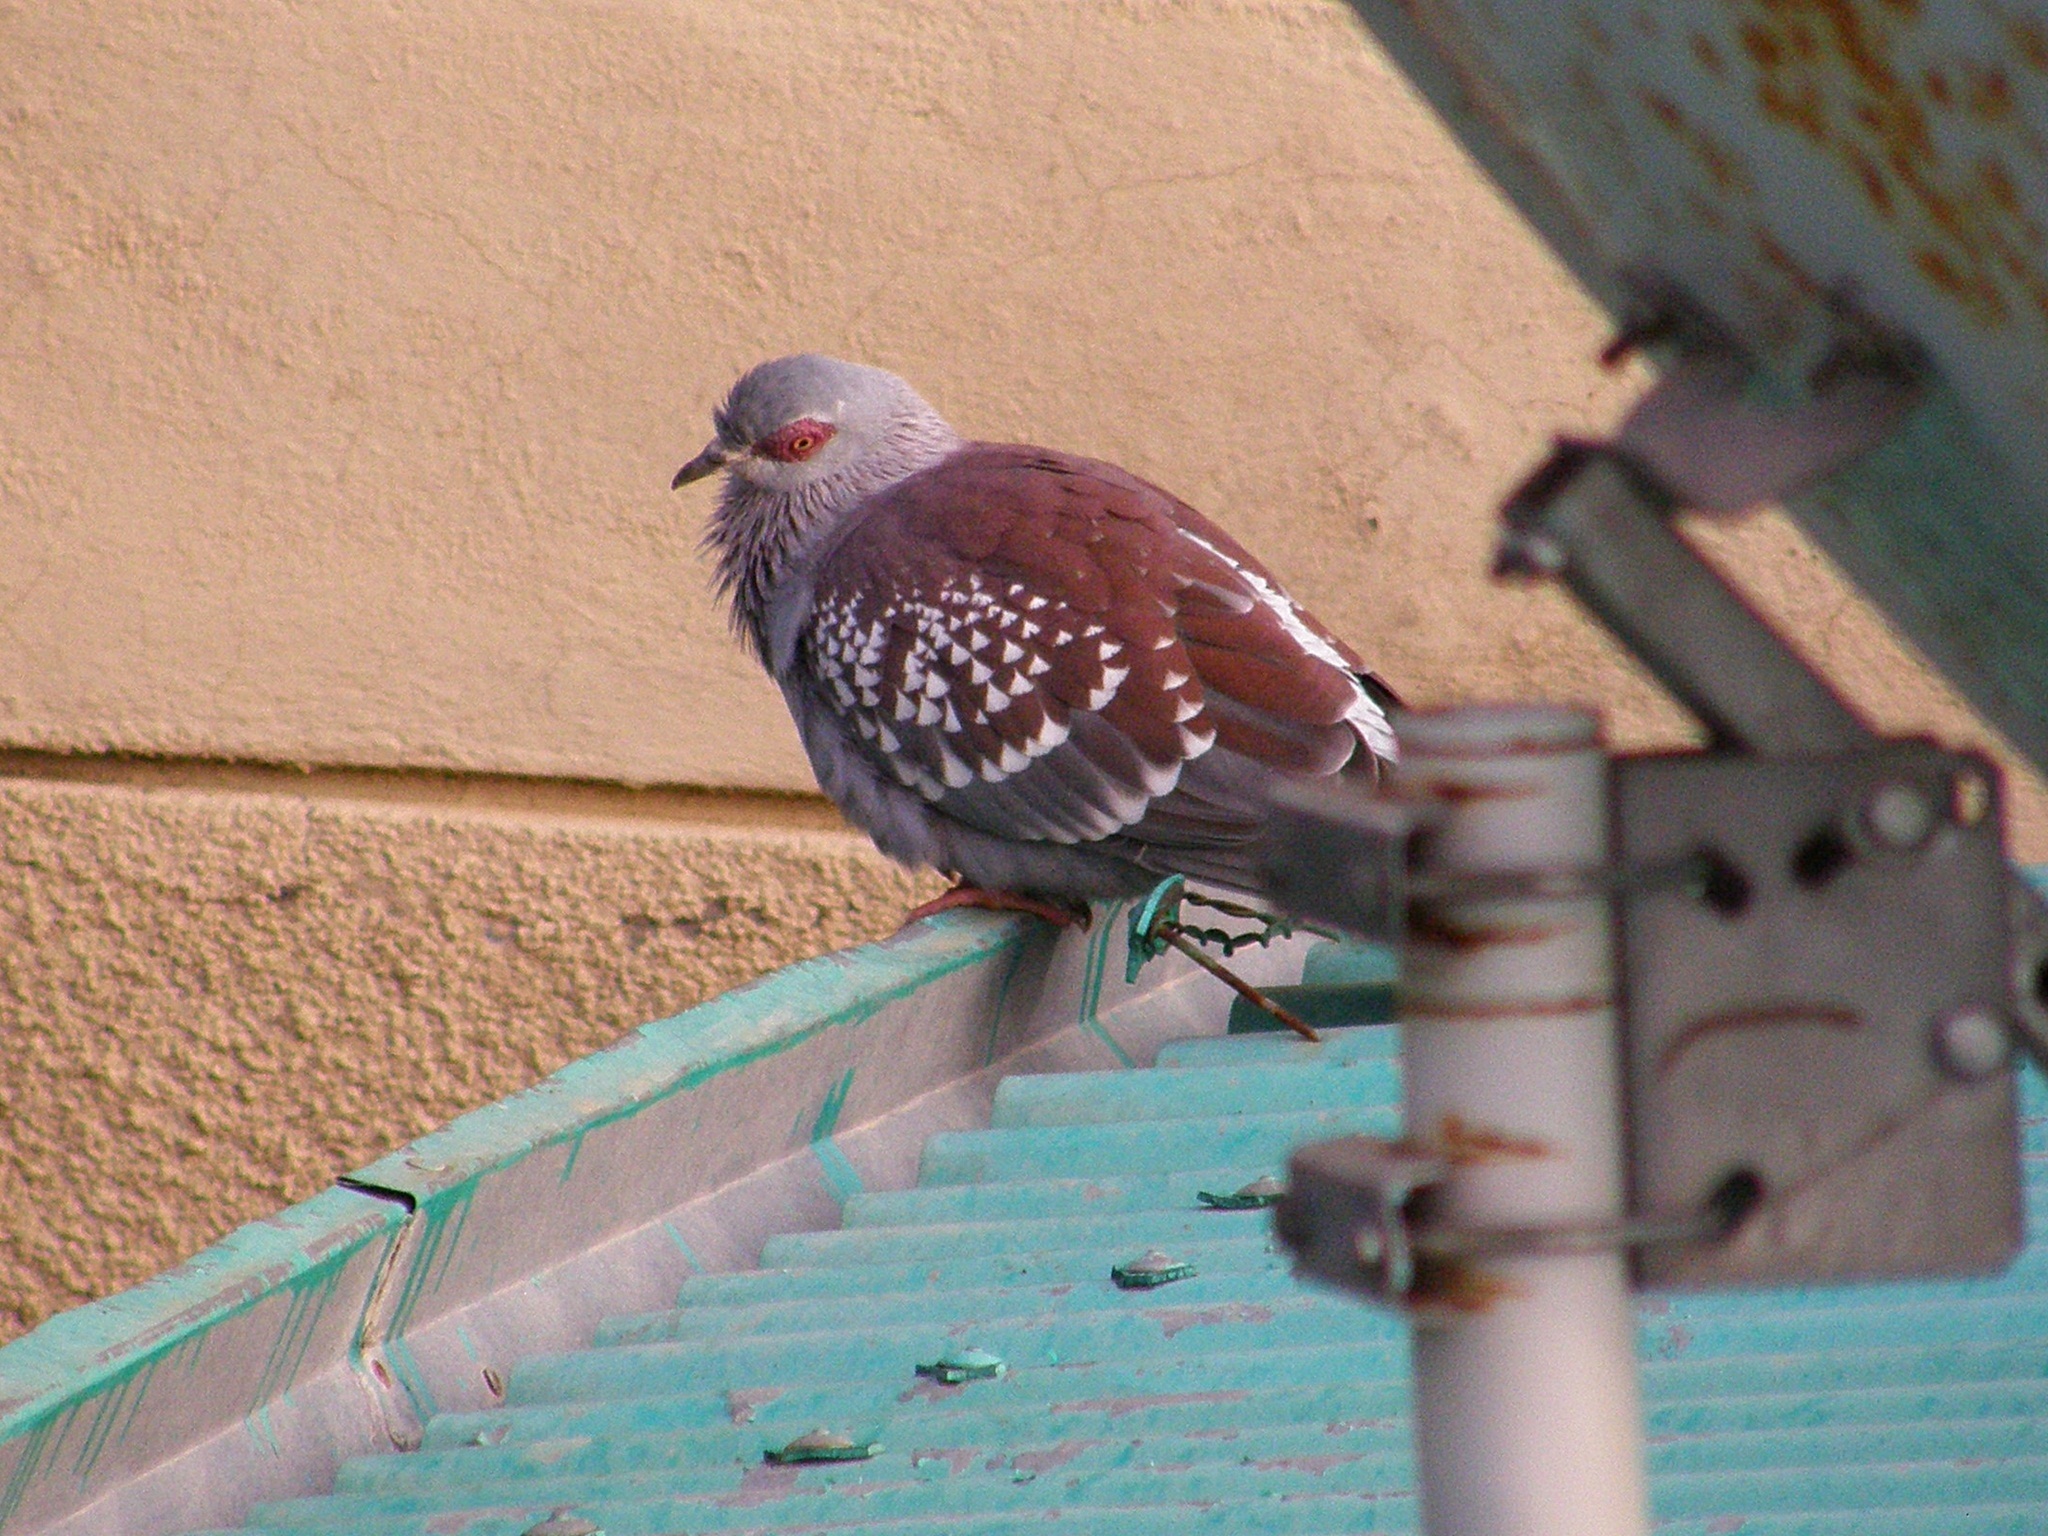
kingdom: Animalia
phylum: Chordata
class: Aves
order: Columbiformes
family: Columbidae
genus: Columba
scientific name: Columba guinea
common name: Speckled pigeon
